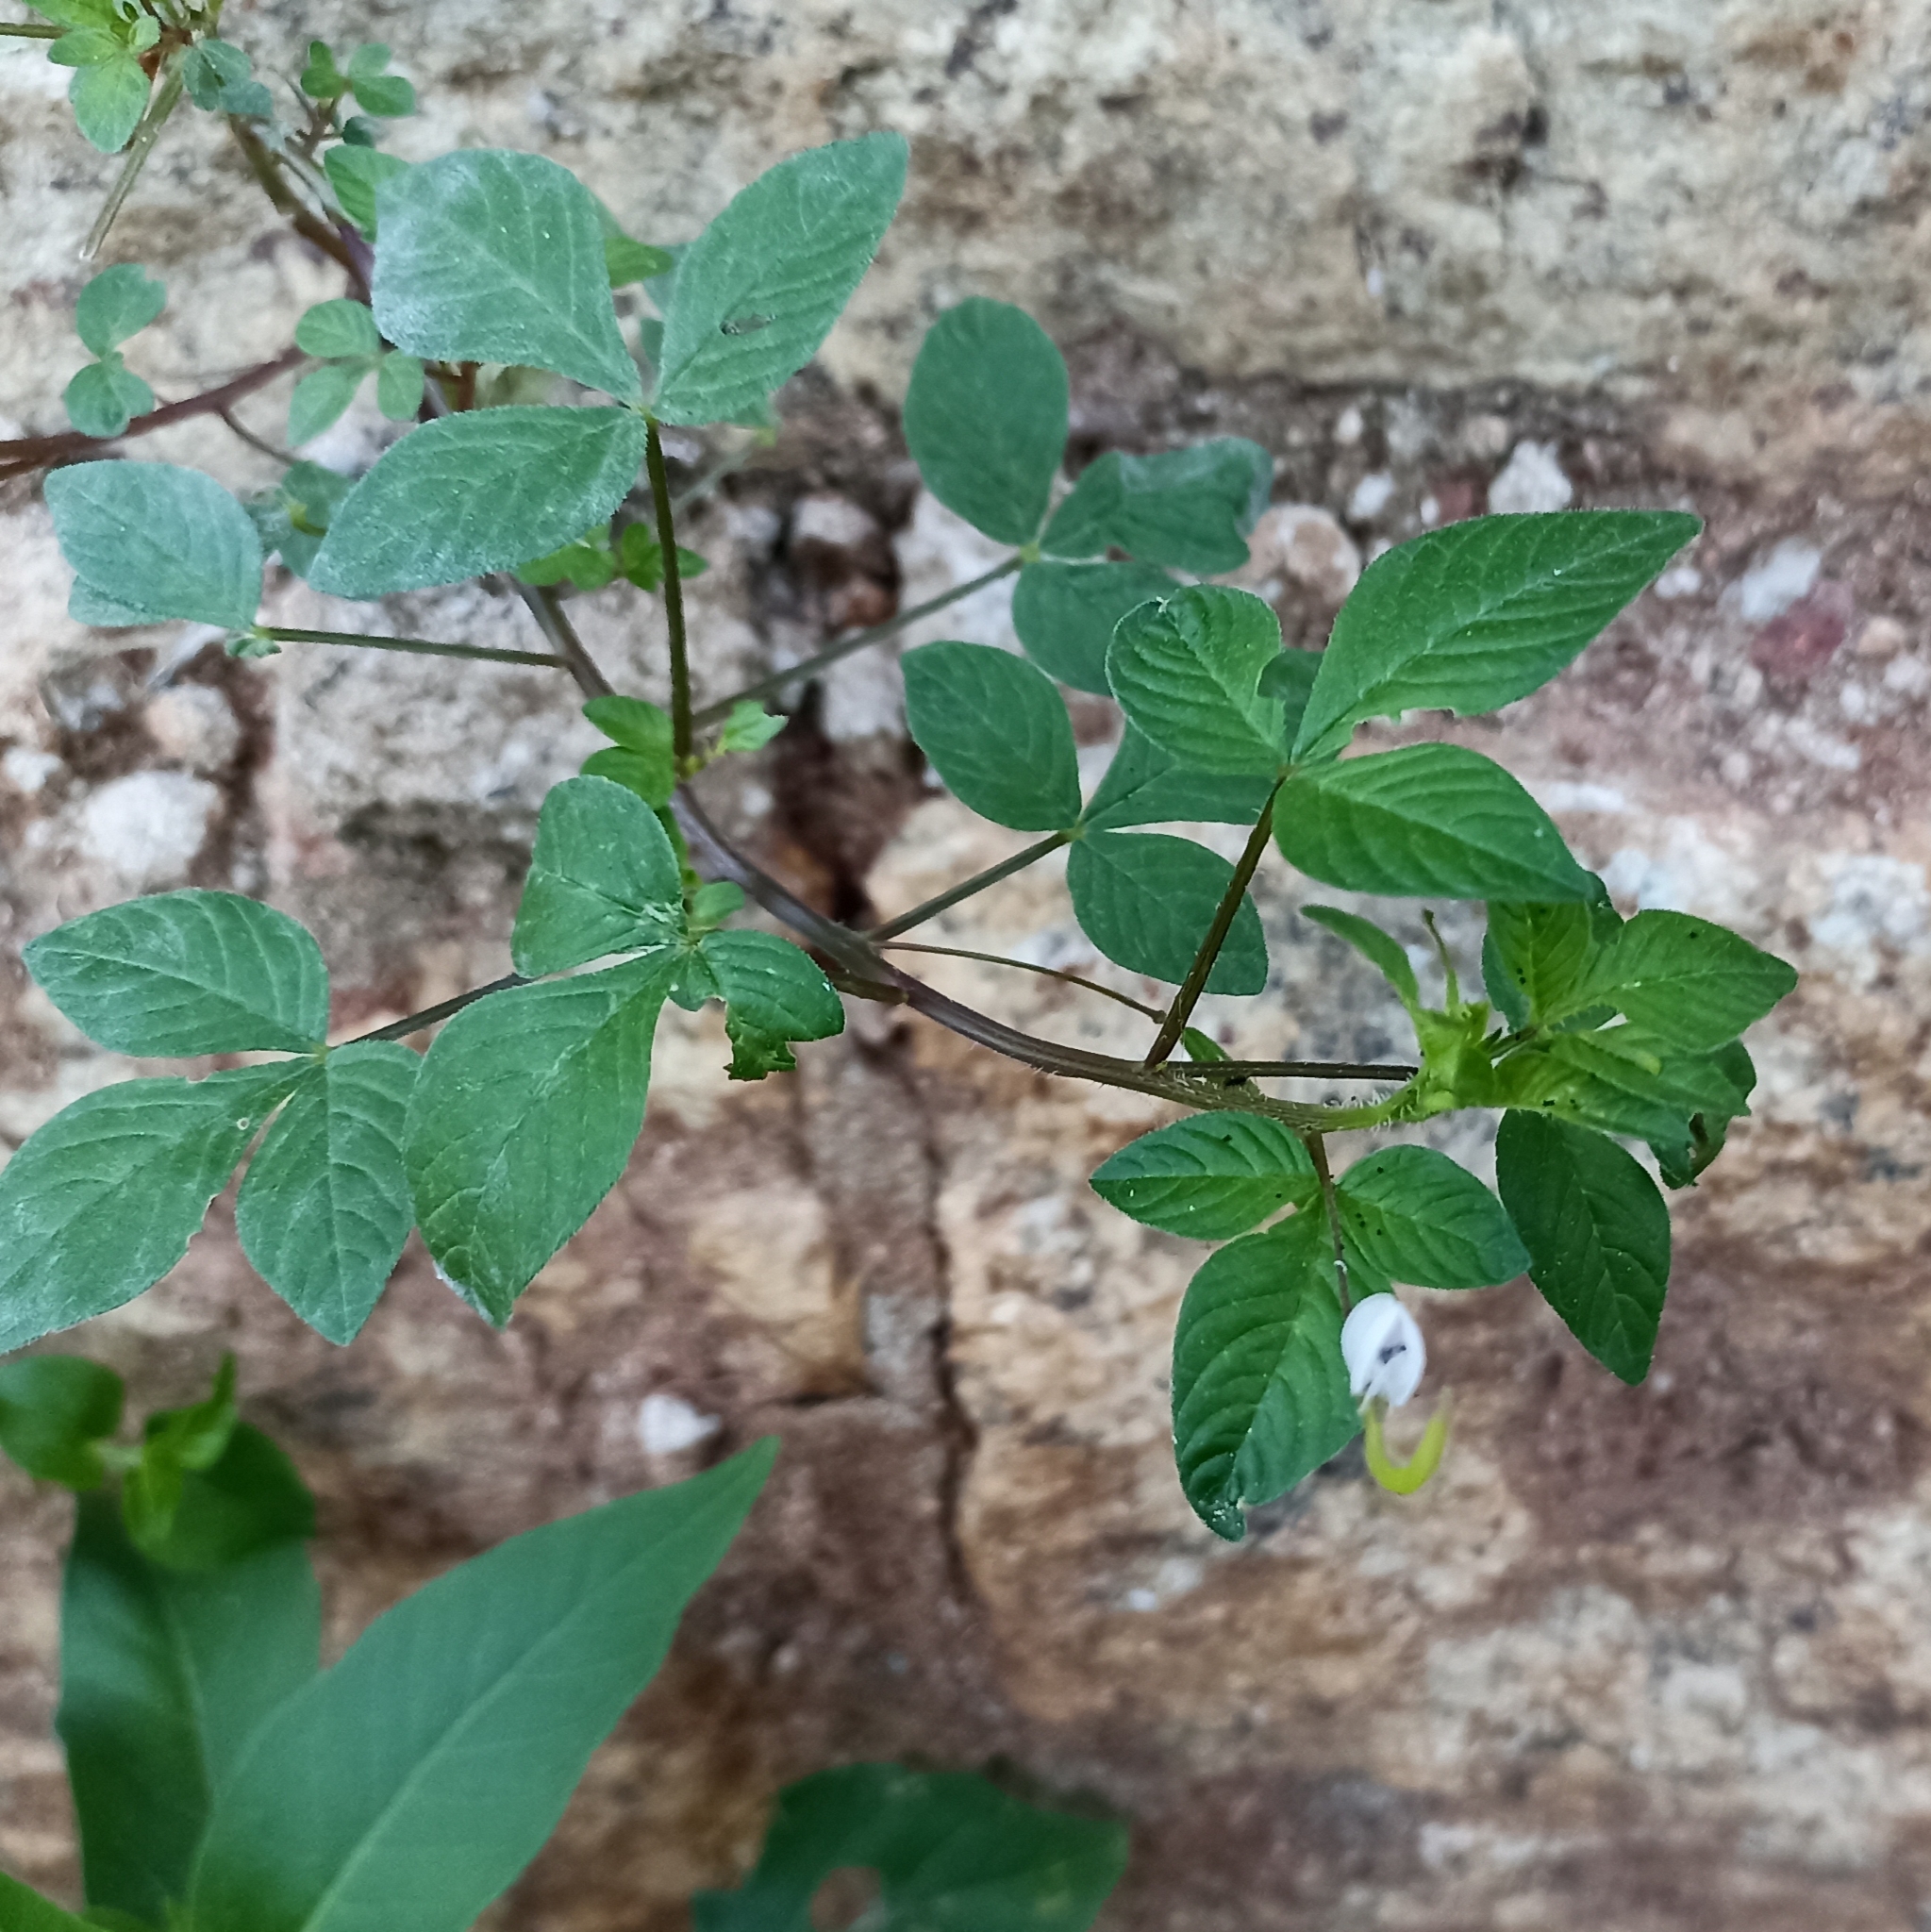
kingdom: Plantae
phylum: Tracheophyta
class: Magnoliopsida
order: Brassicales
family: Cleomaceae
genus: Sieruela
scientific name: Sieruela rutidosperma
